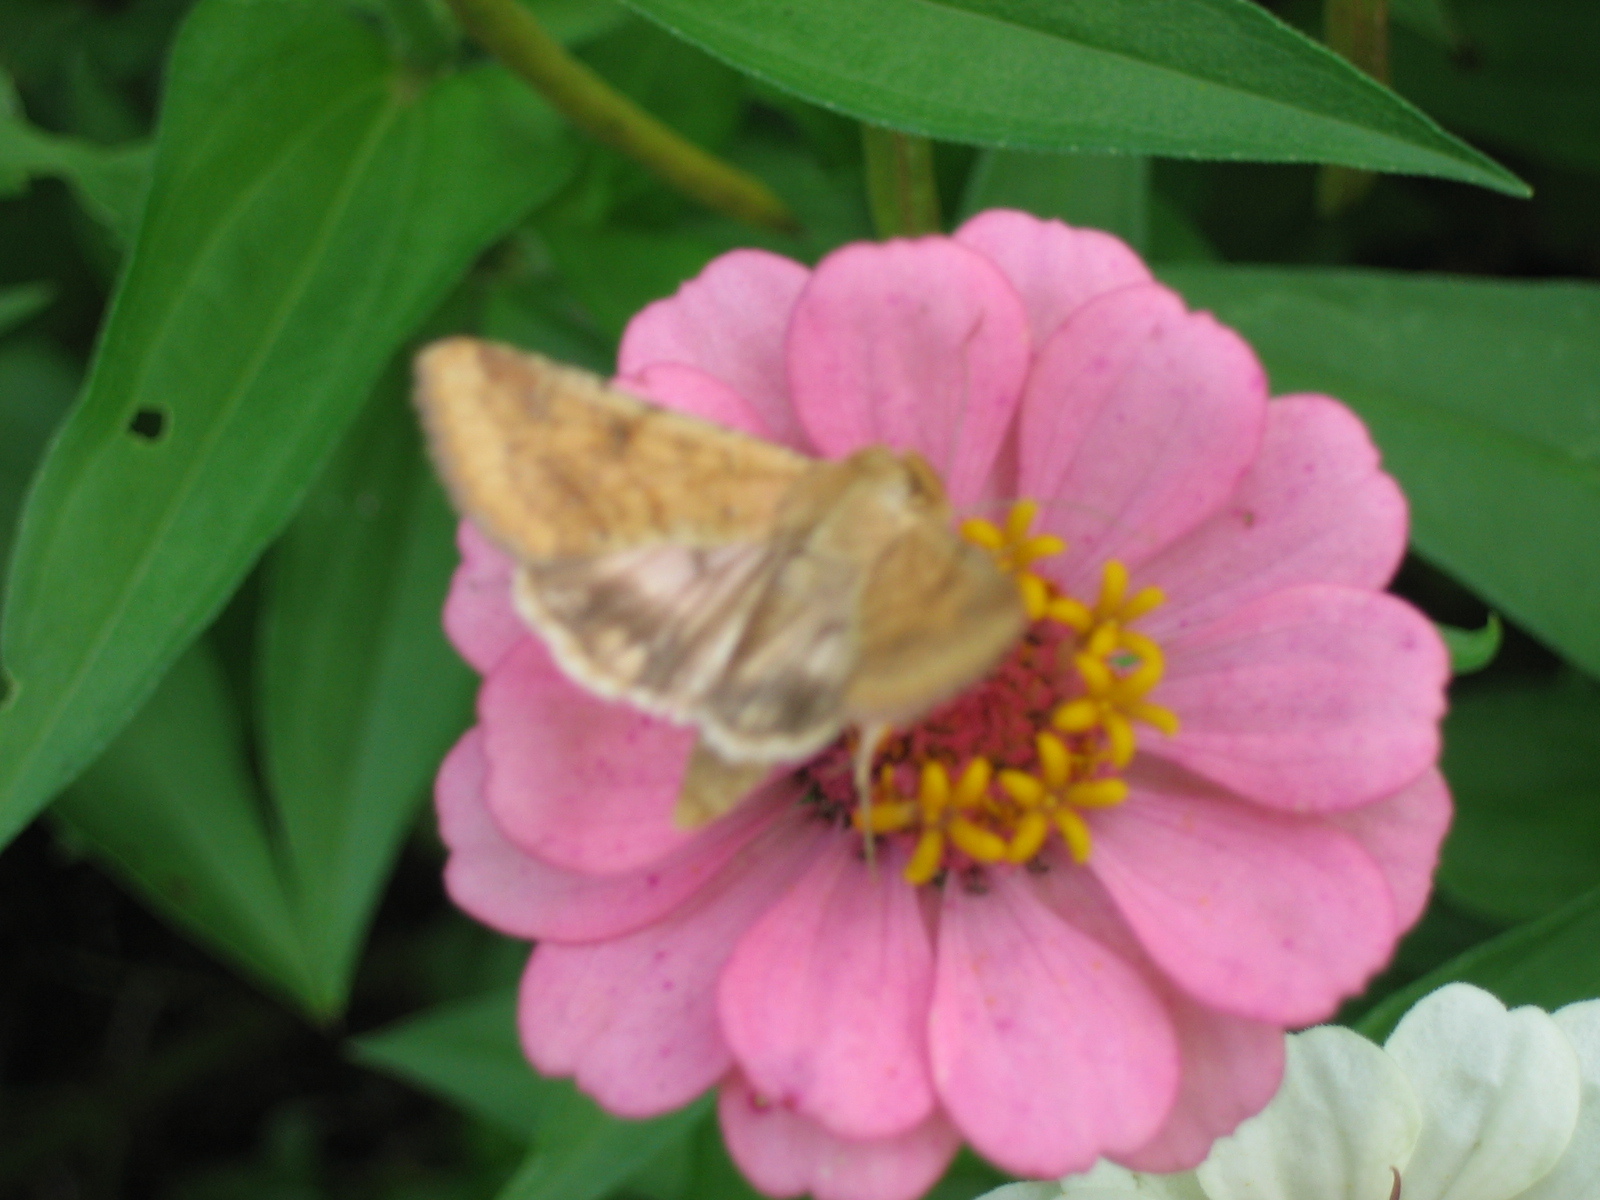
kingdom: Animalia
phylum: Arthropoda
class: Insecta
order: Lepidoptera
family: Noctuidae
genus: Helicoverpa
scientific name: Helicoverpa zea
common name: Bollworm
